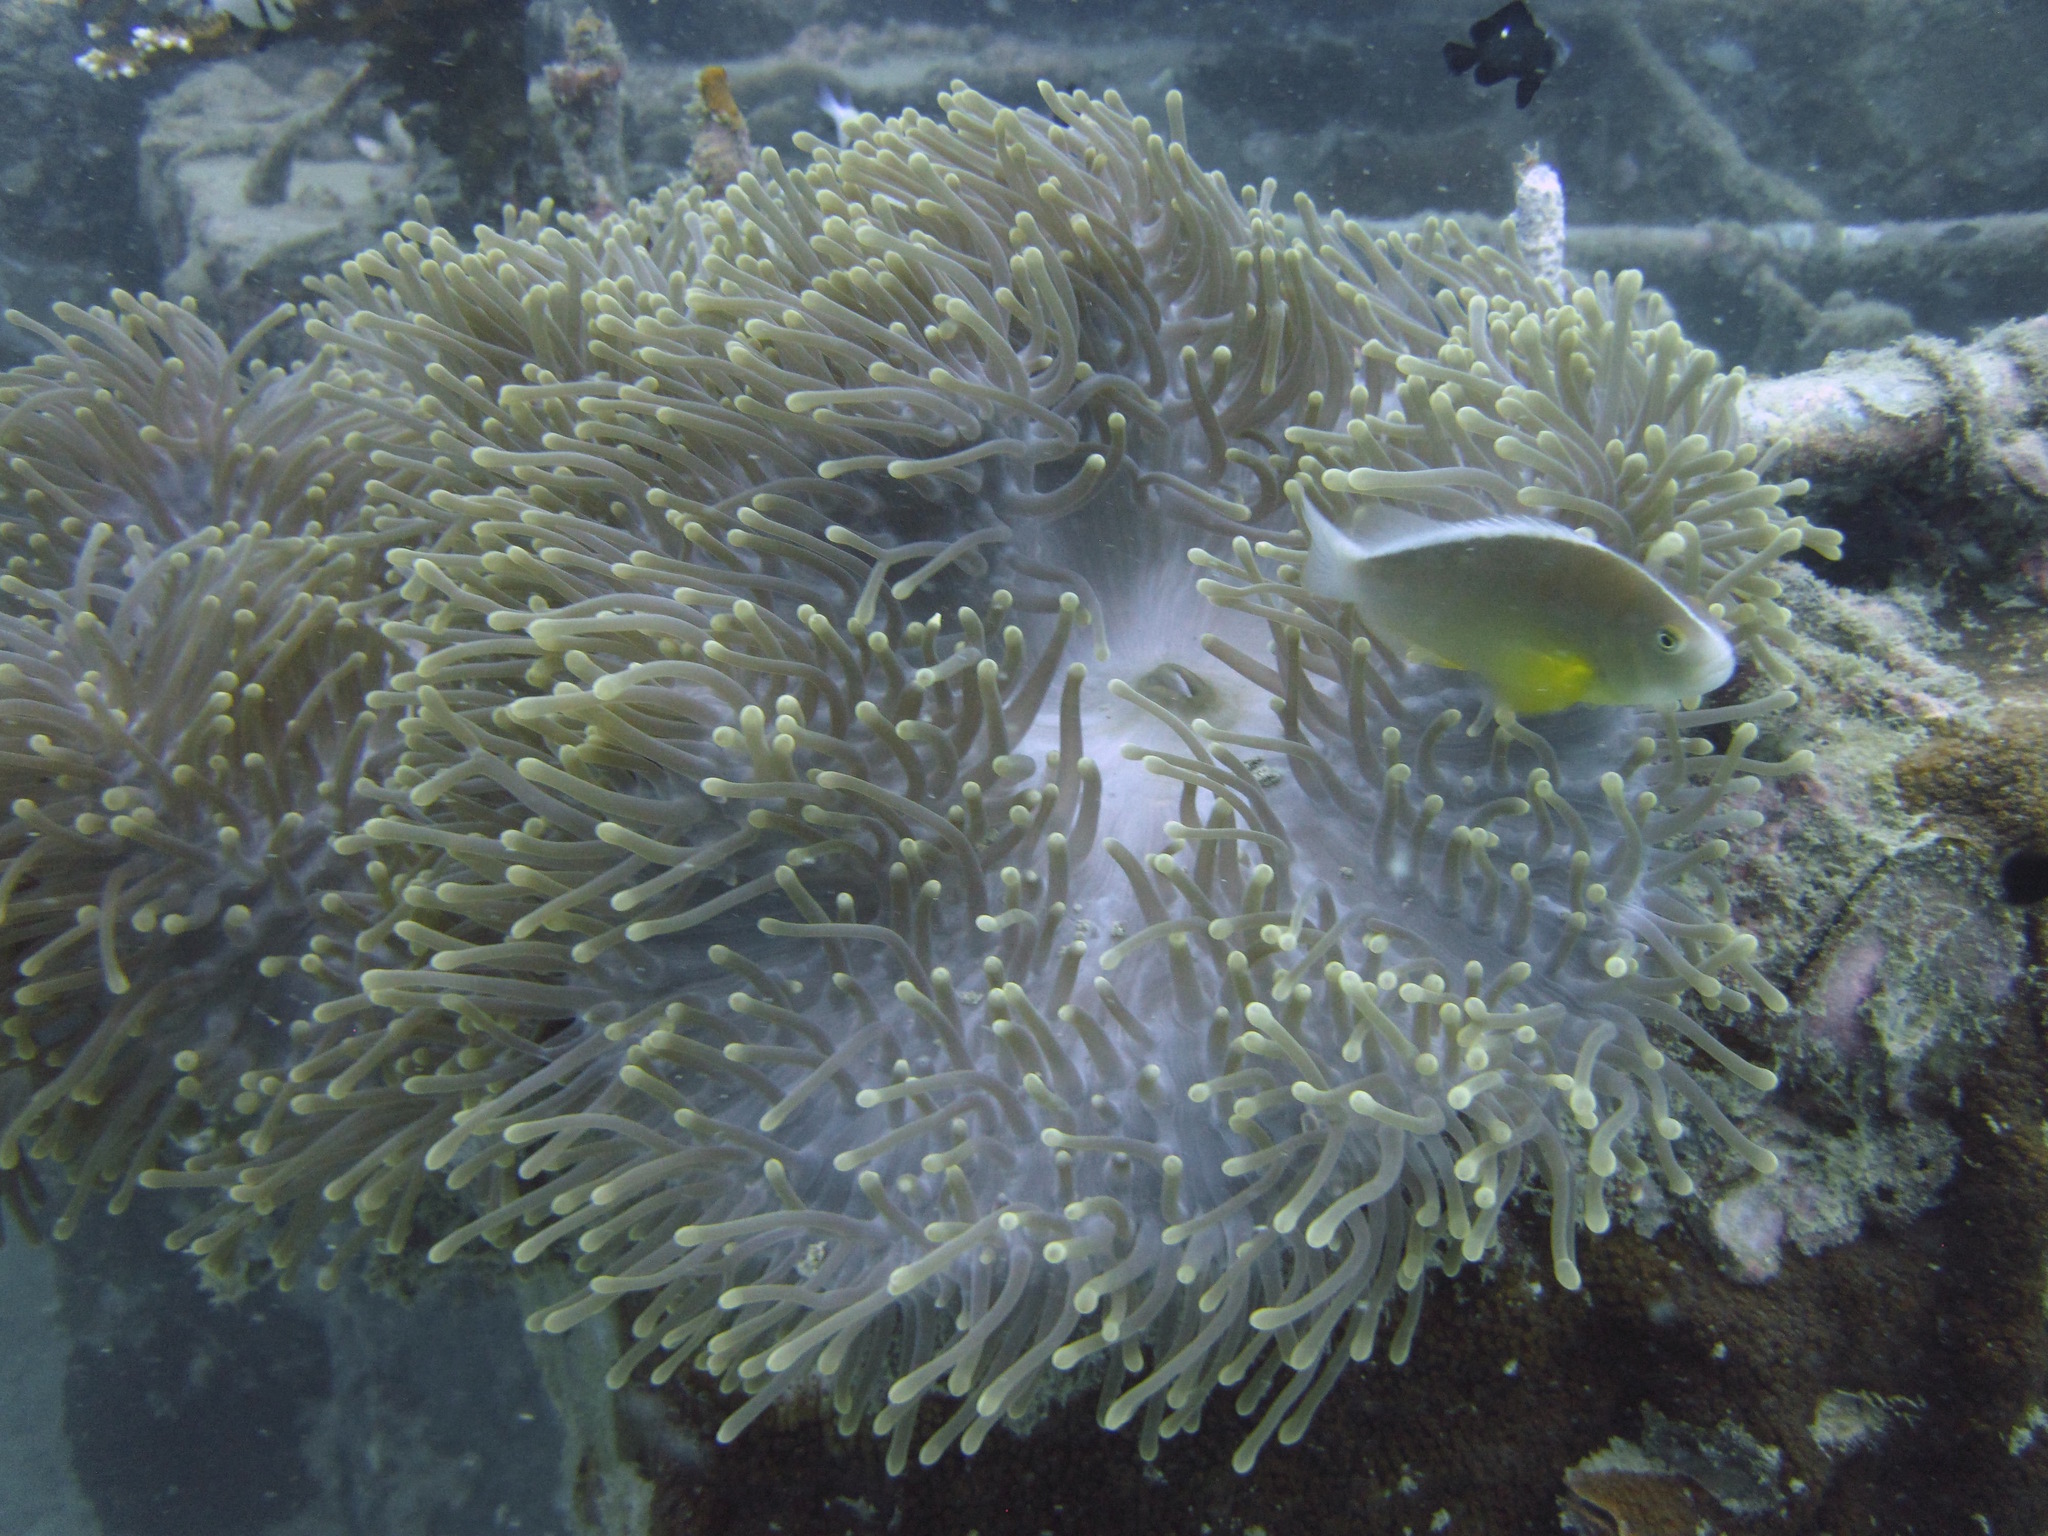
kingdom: Animalia
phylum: Chordata
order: Perciformes
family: Pomacentridae
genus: Amphiprion
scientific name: Amphiprion akallopisos
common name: Skunk clownfish
